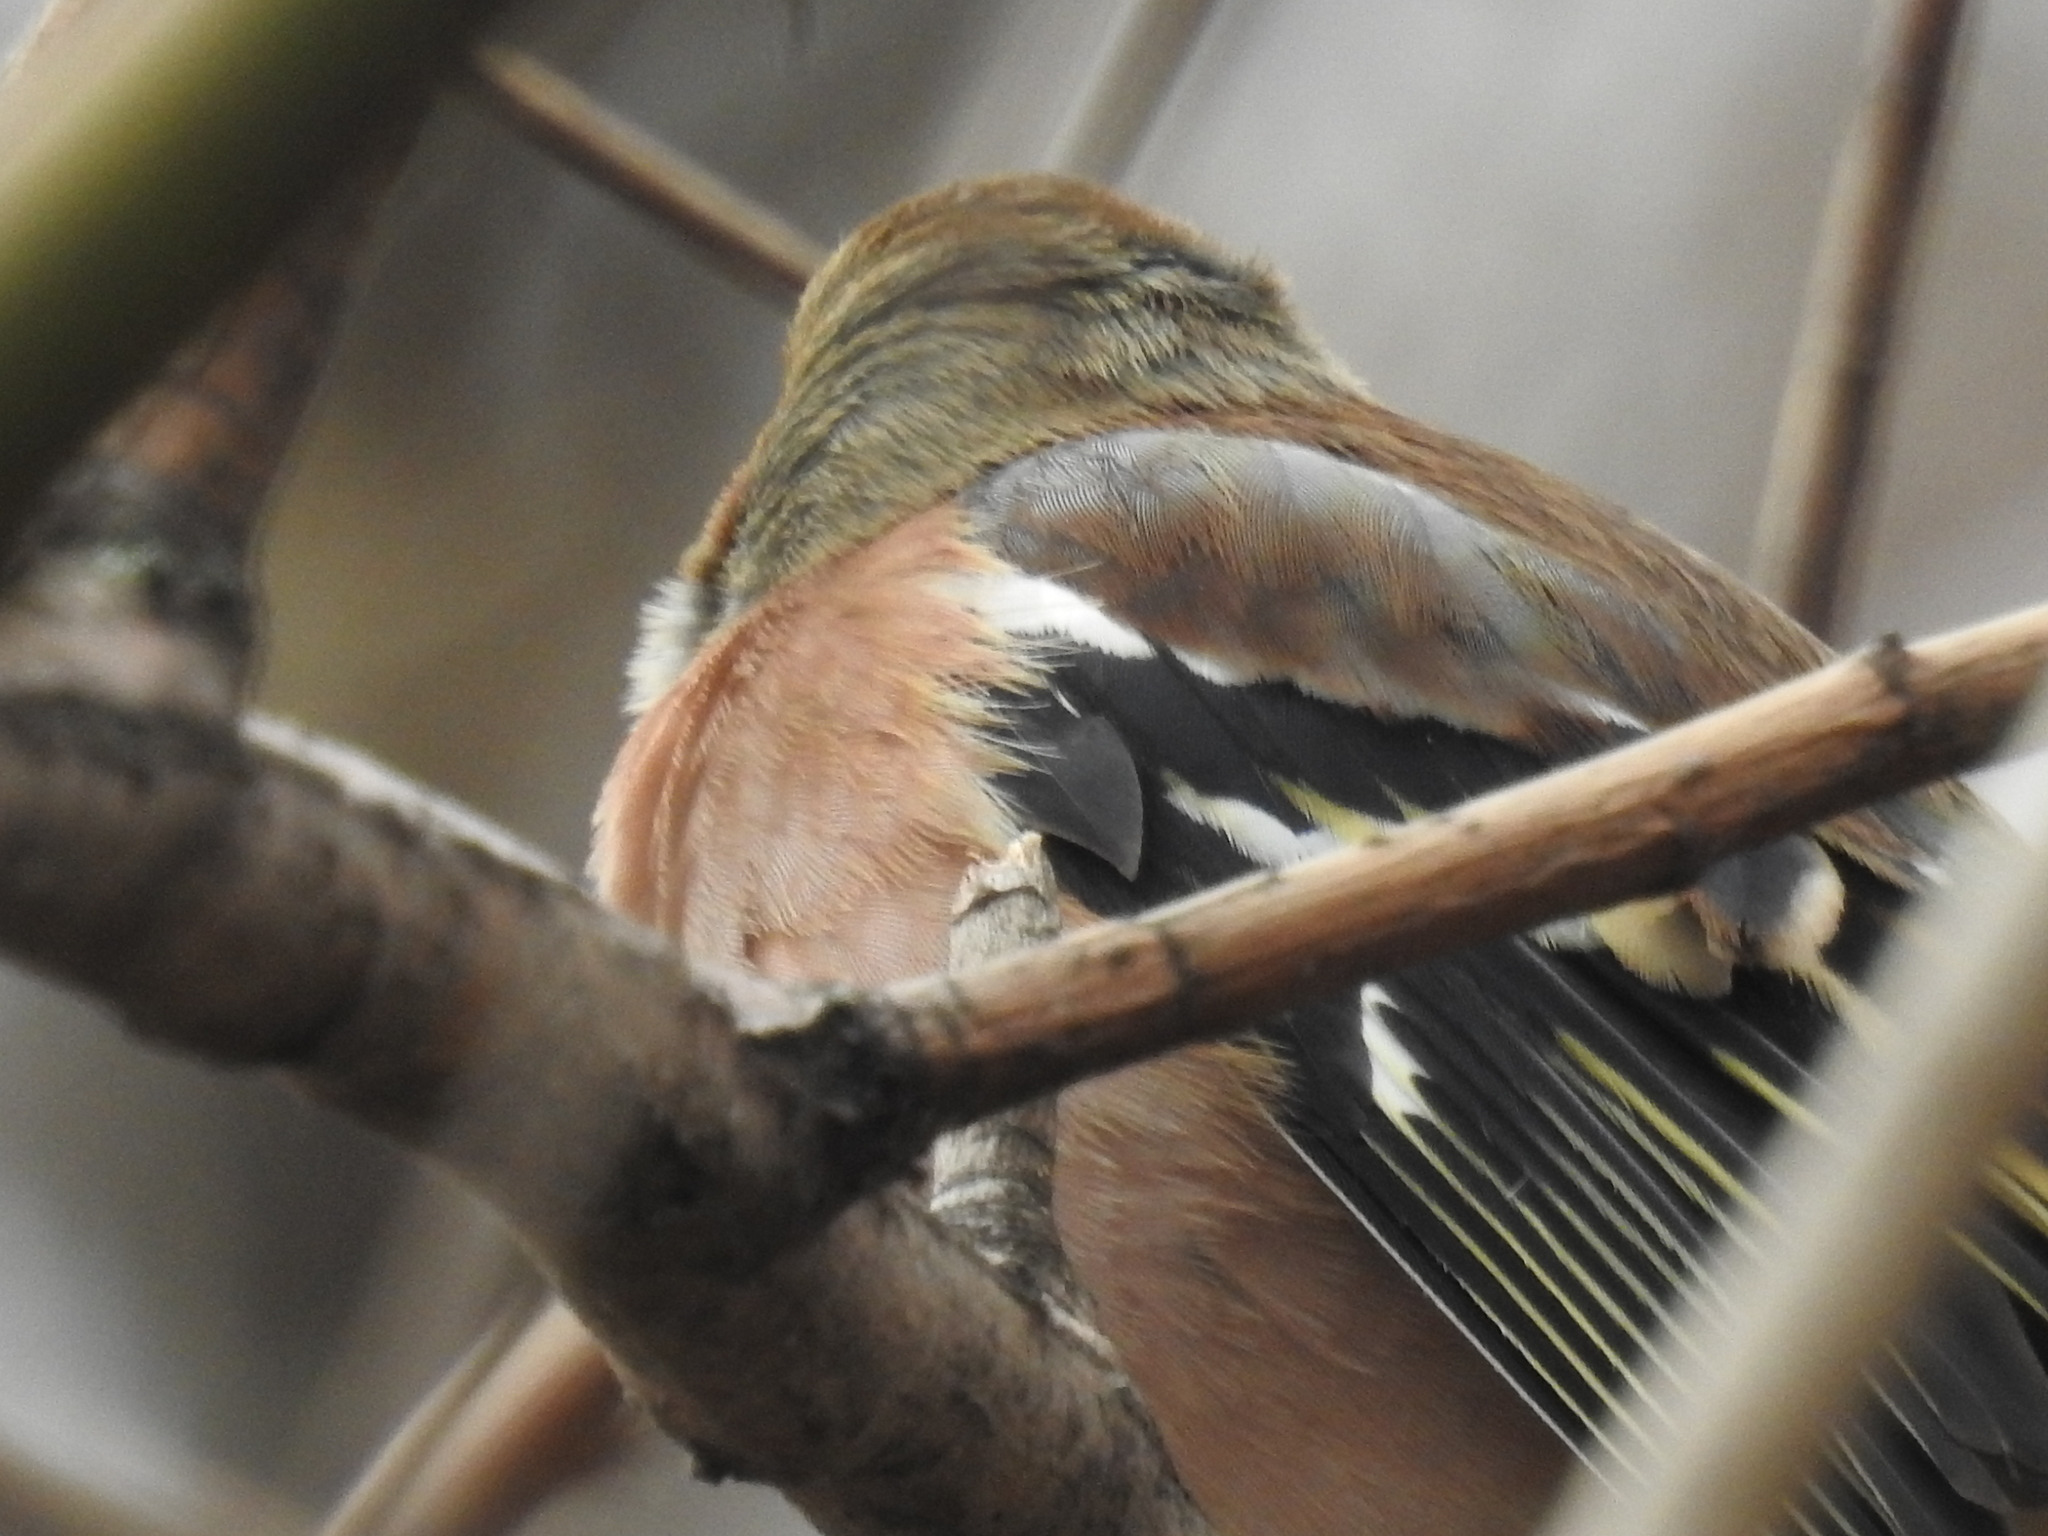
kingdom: Animalia
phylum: Chordata
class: Aves
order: Passeriformes
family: Fringillidae
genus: Fringilla
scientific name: Fringilla coelebs
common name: Common chaffinch
